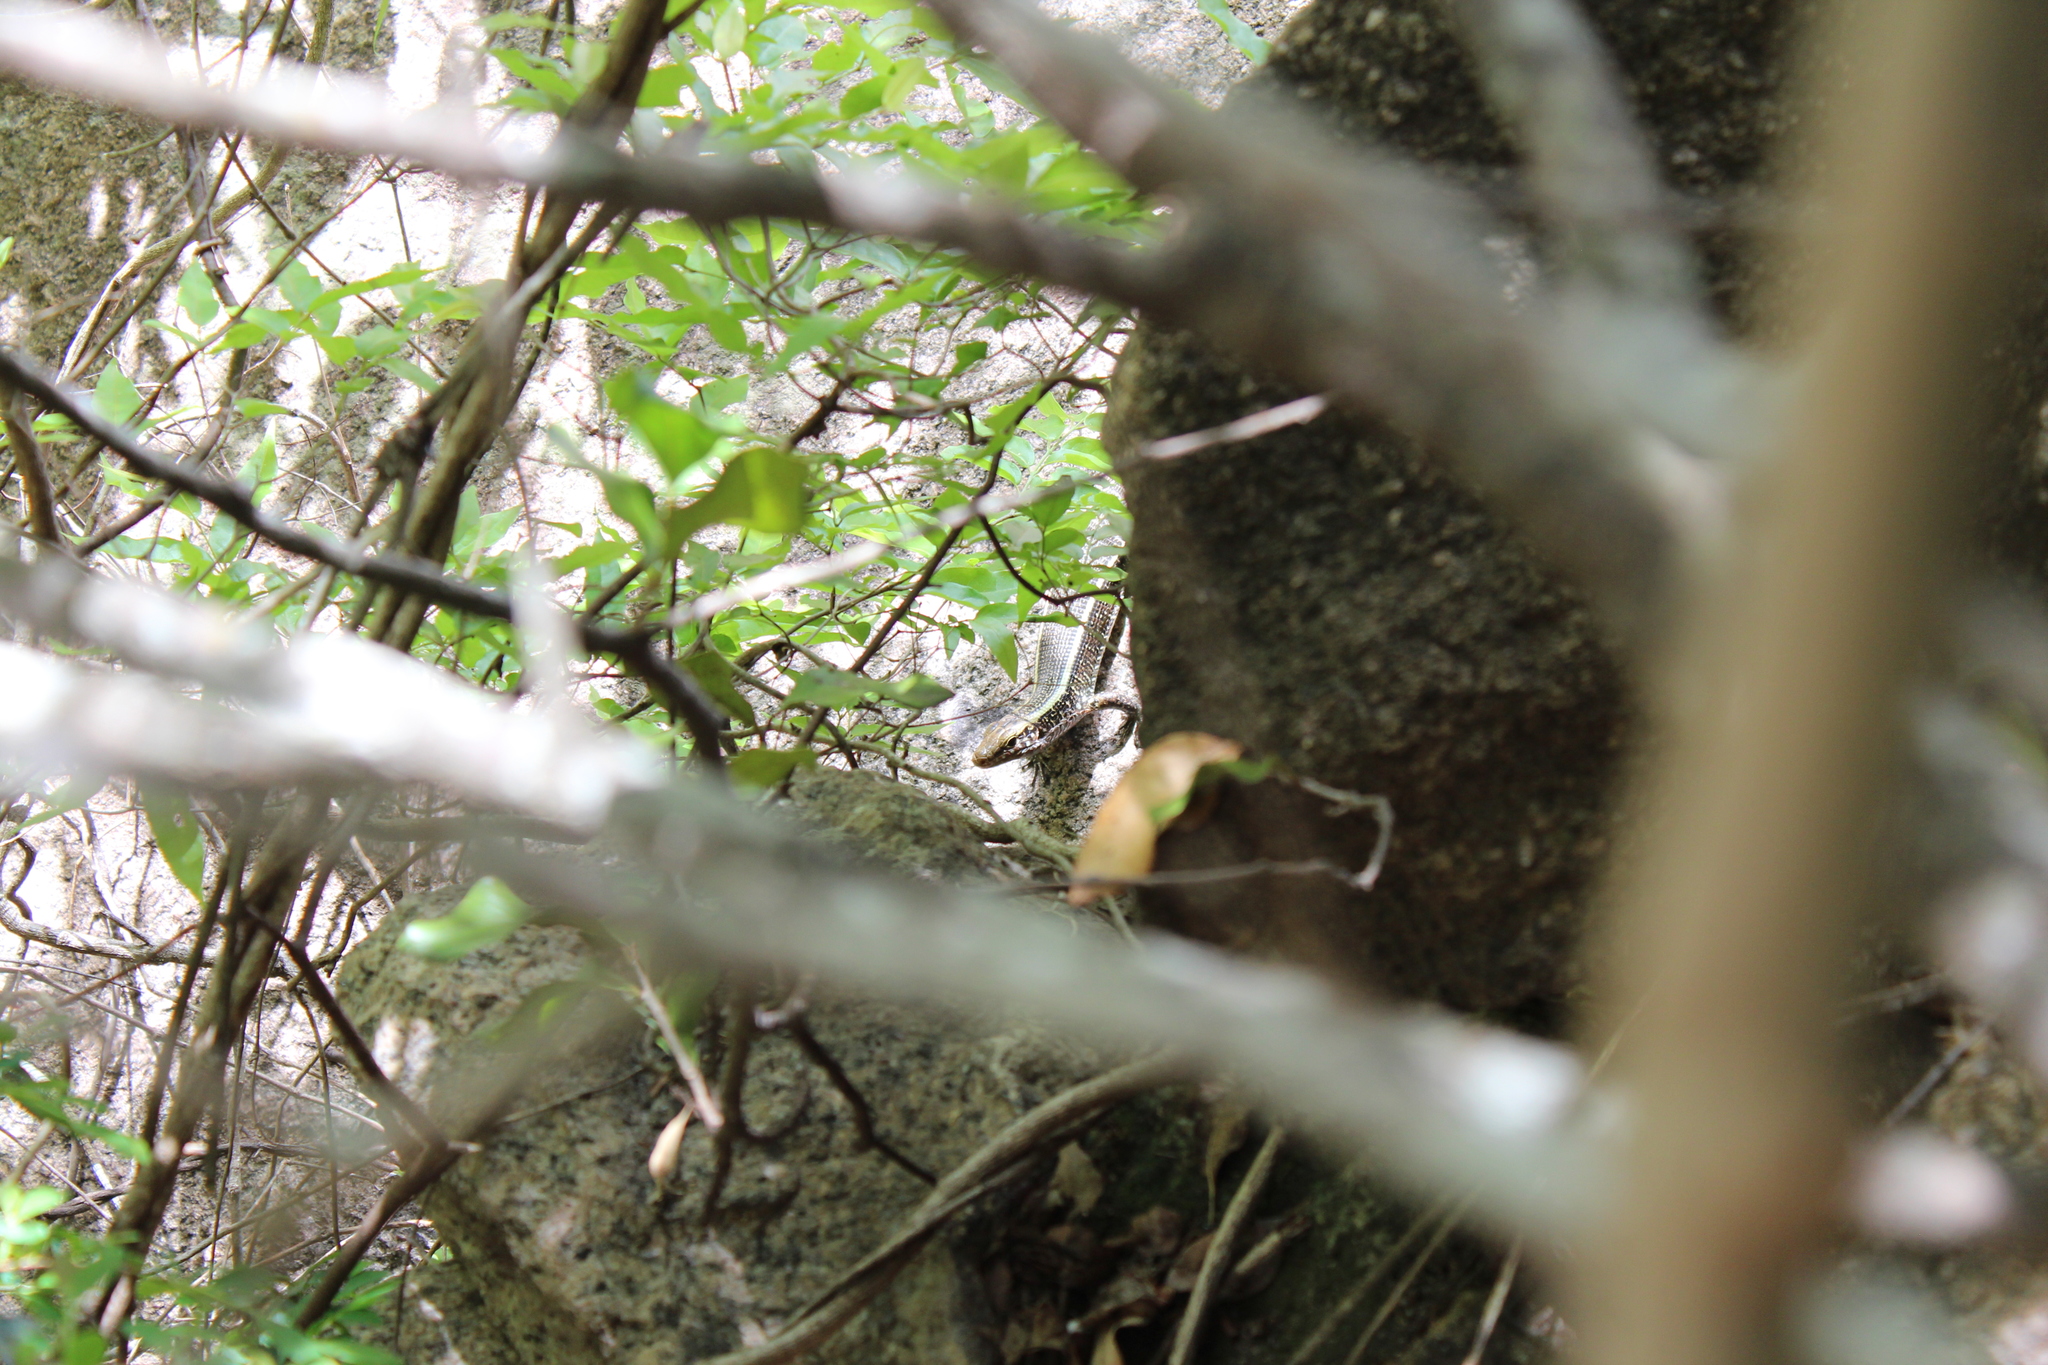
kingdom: Animalia
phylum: Chordata
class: Squamata
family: Gerrhosauridae
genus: Zonosaurus
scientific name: Zonosaurus laticaudatus
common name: Western girdled lizard
